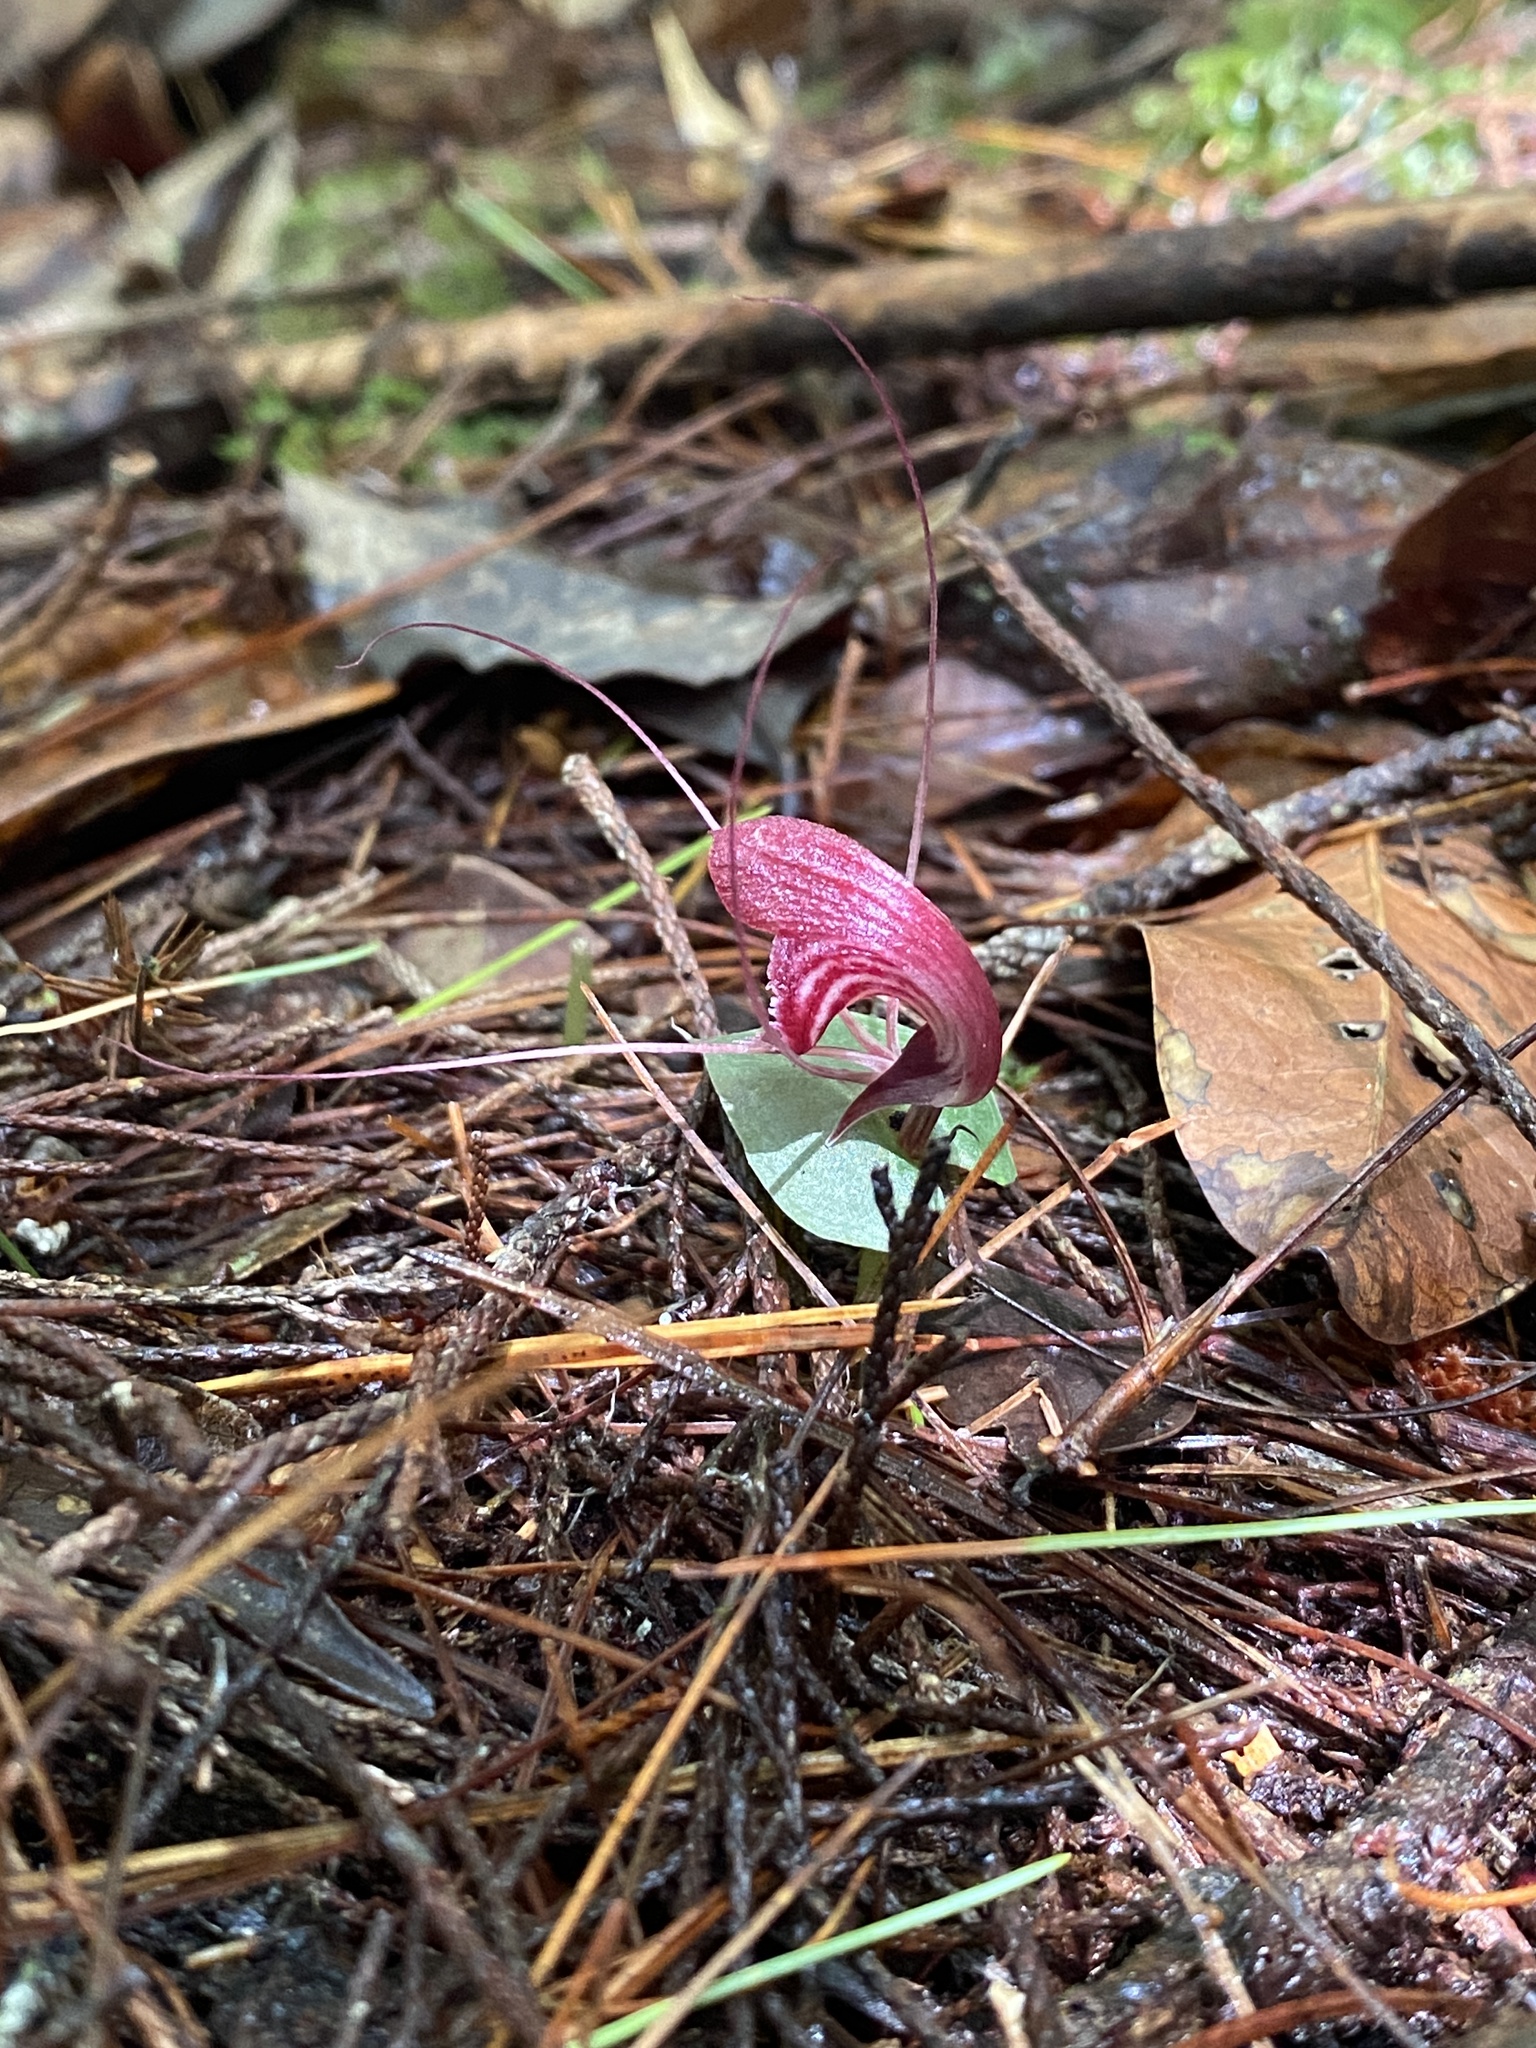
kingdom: Plantae
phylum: Tracheophyta
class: Liliopsida
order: Asparagales
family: Orchidaceae
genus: Corybas
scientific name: Corybas annamensis
